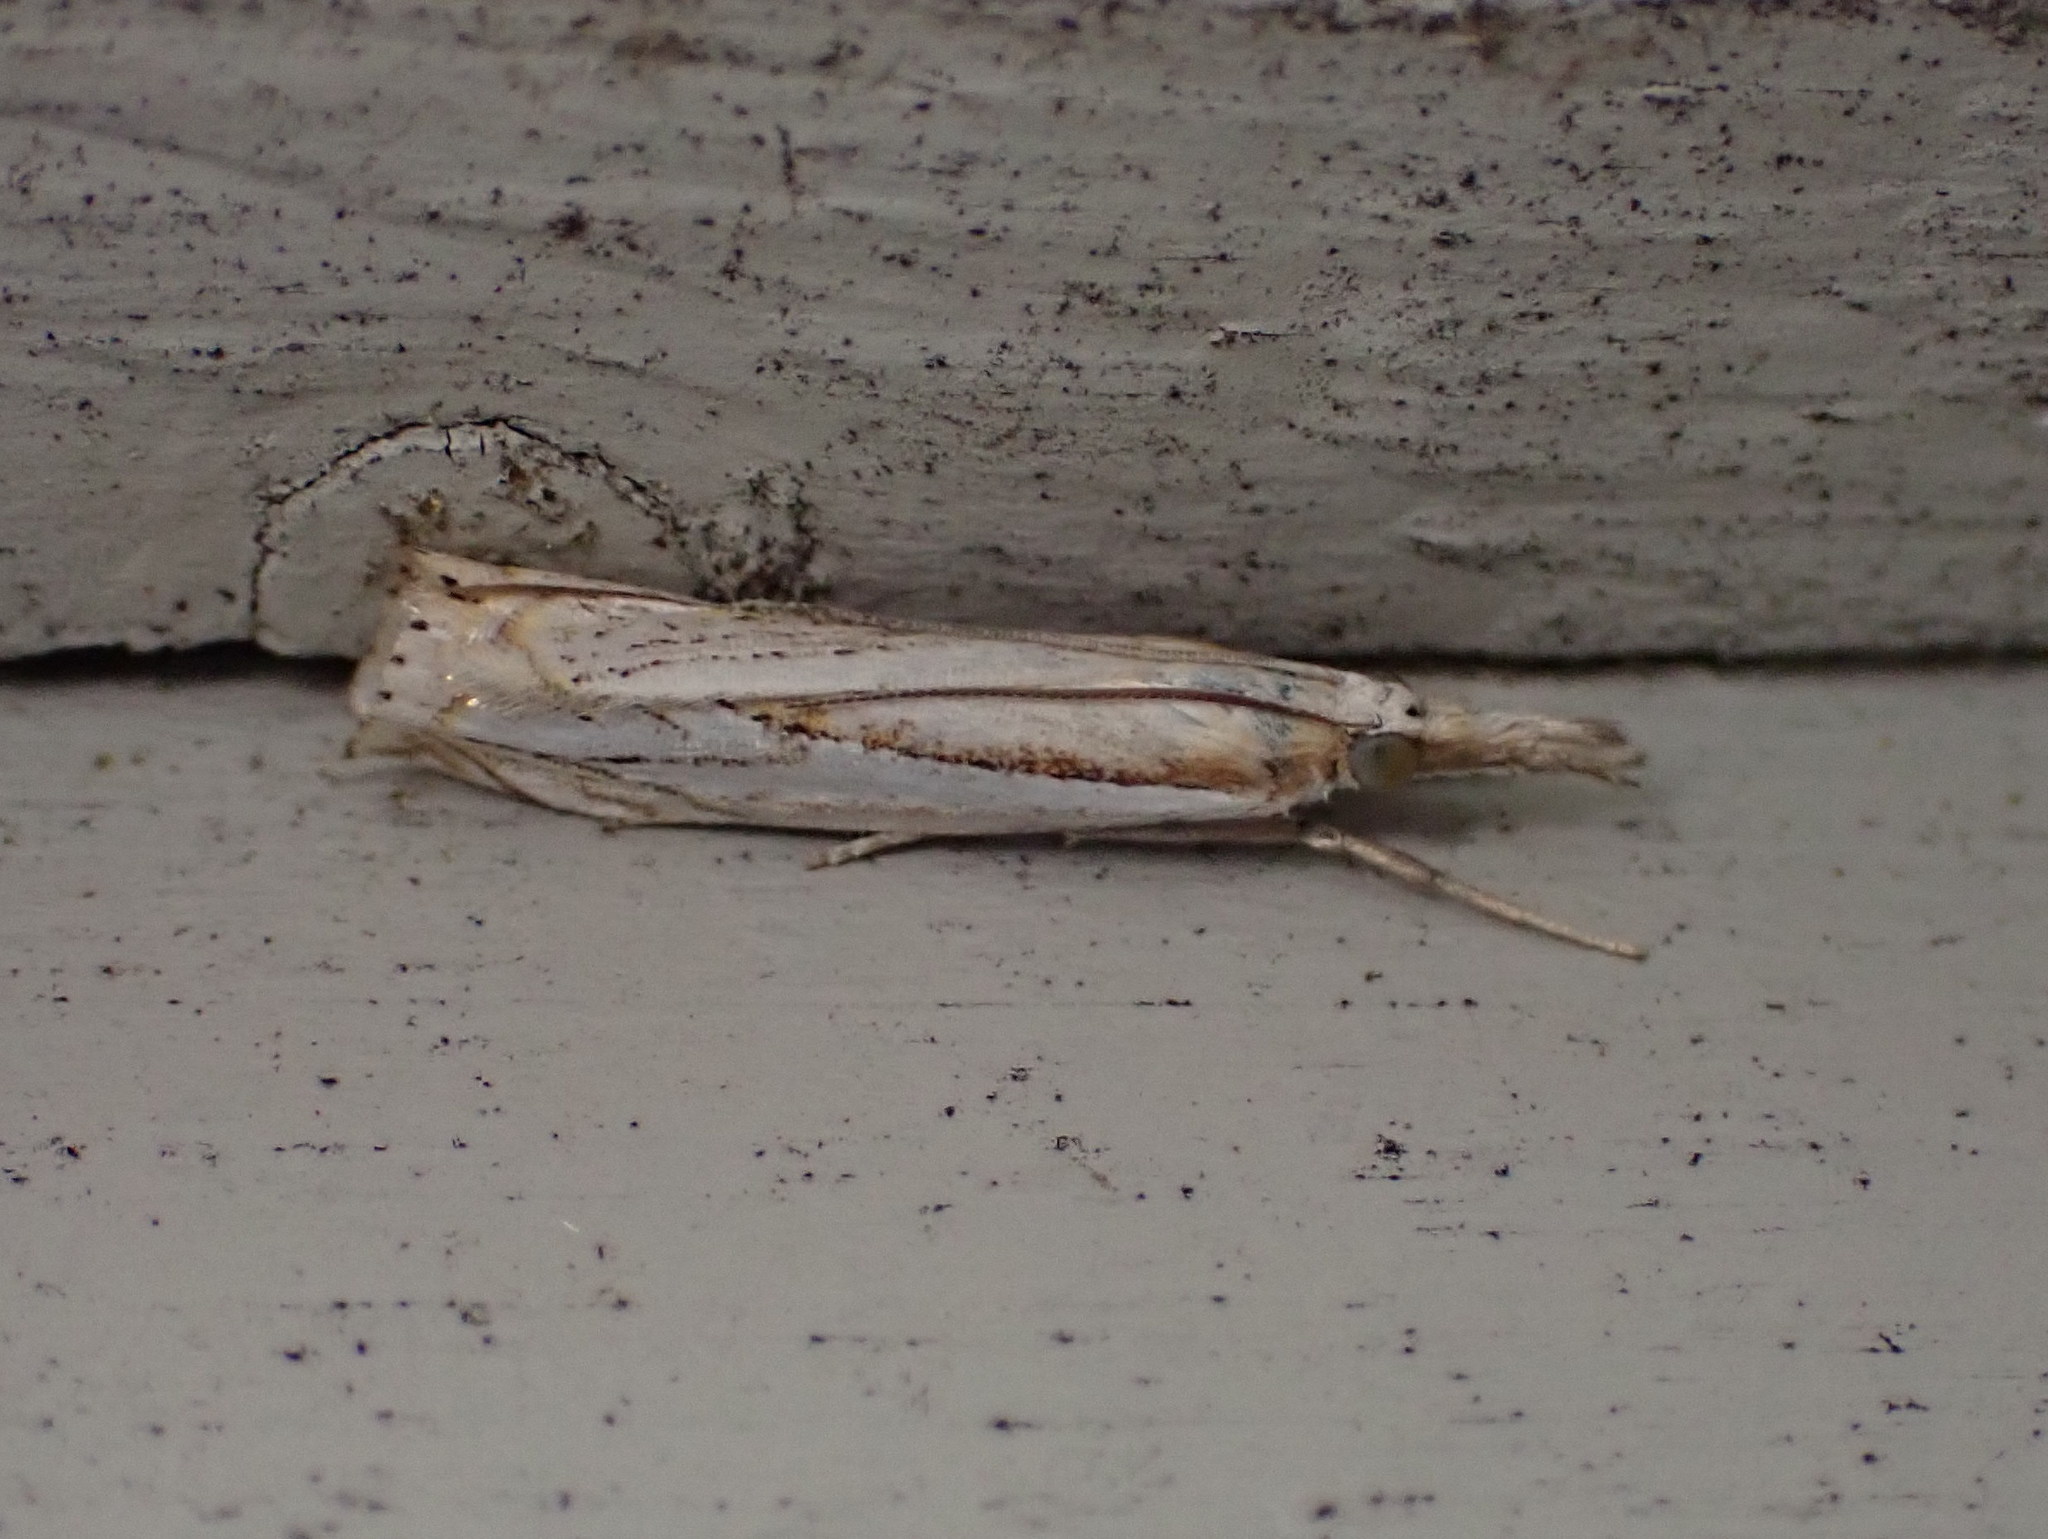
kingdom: Animalia
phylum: Arthropoda
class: Insecta
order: Lepidoptera
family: Crambidae
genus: Crambus
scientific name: Crambus saltuellus
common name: Pasture grass-veneer
